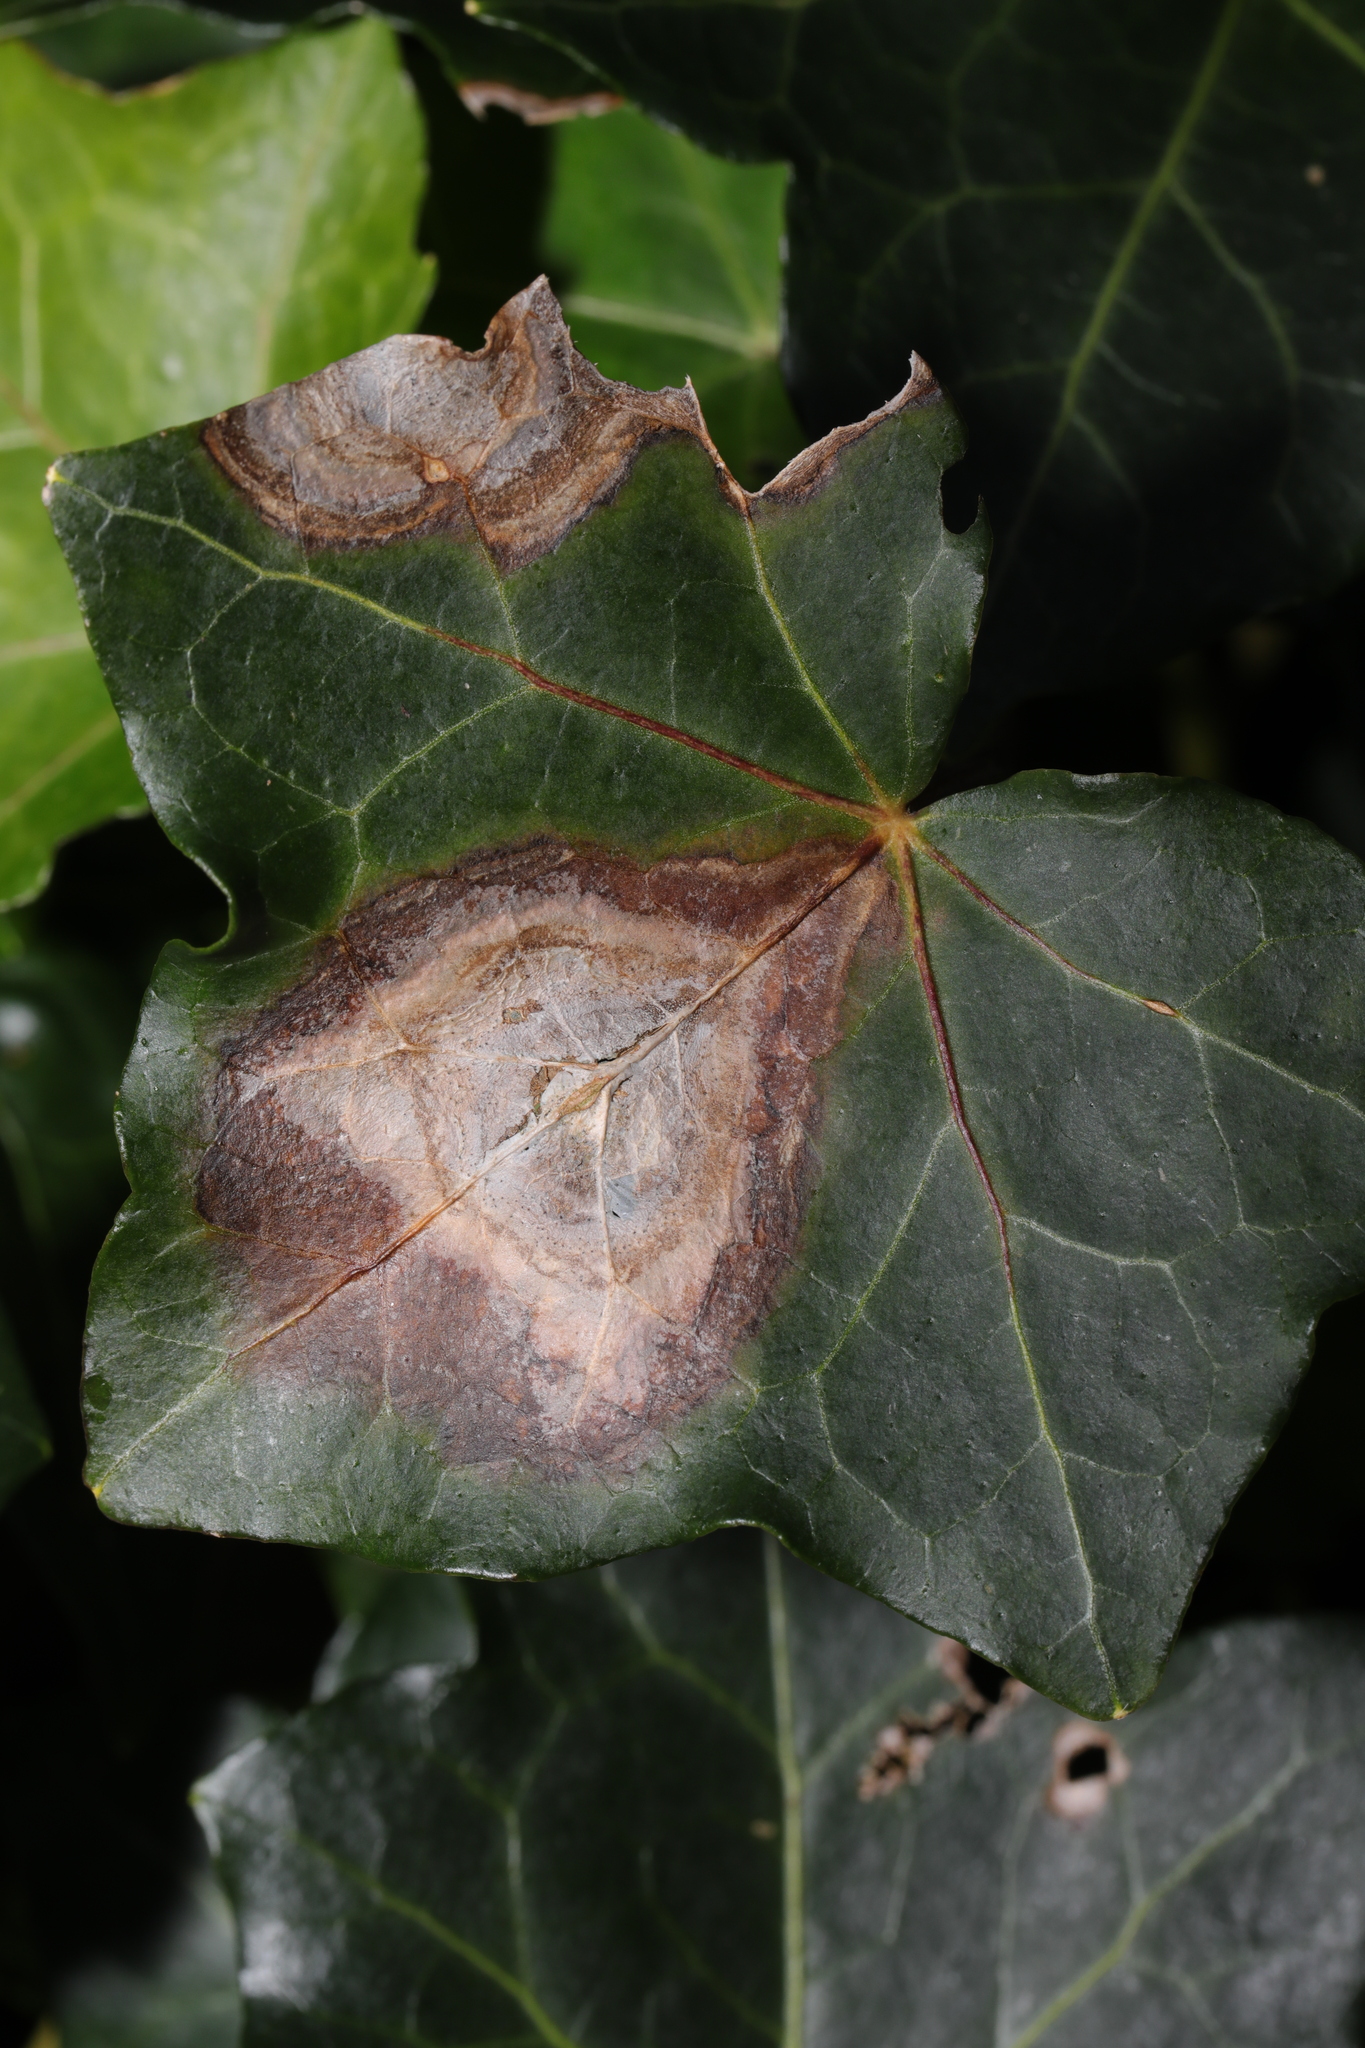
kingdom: Fungi
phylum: Ascomycota
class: Dothideomycetes
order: Pleosporales
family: Didymellaceae
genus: Boeremia
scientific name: Boeremia hedericola
